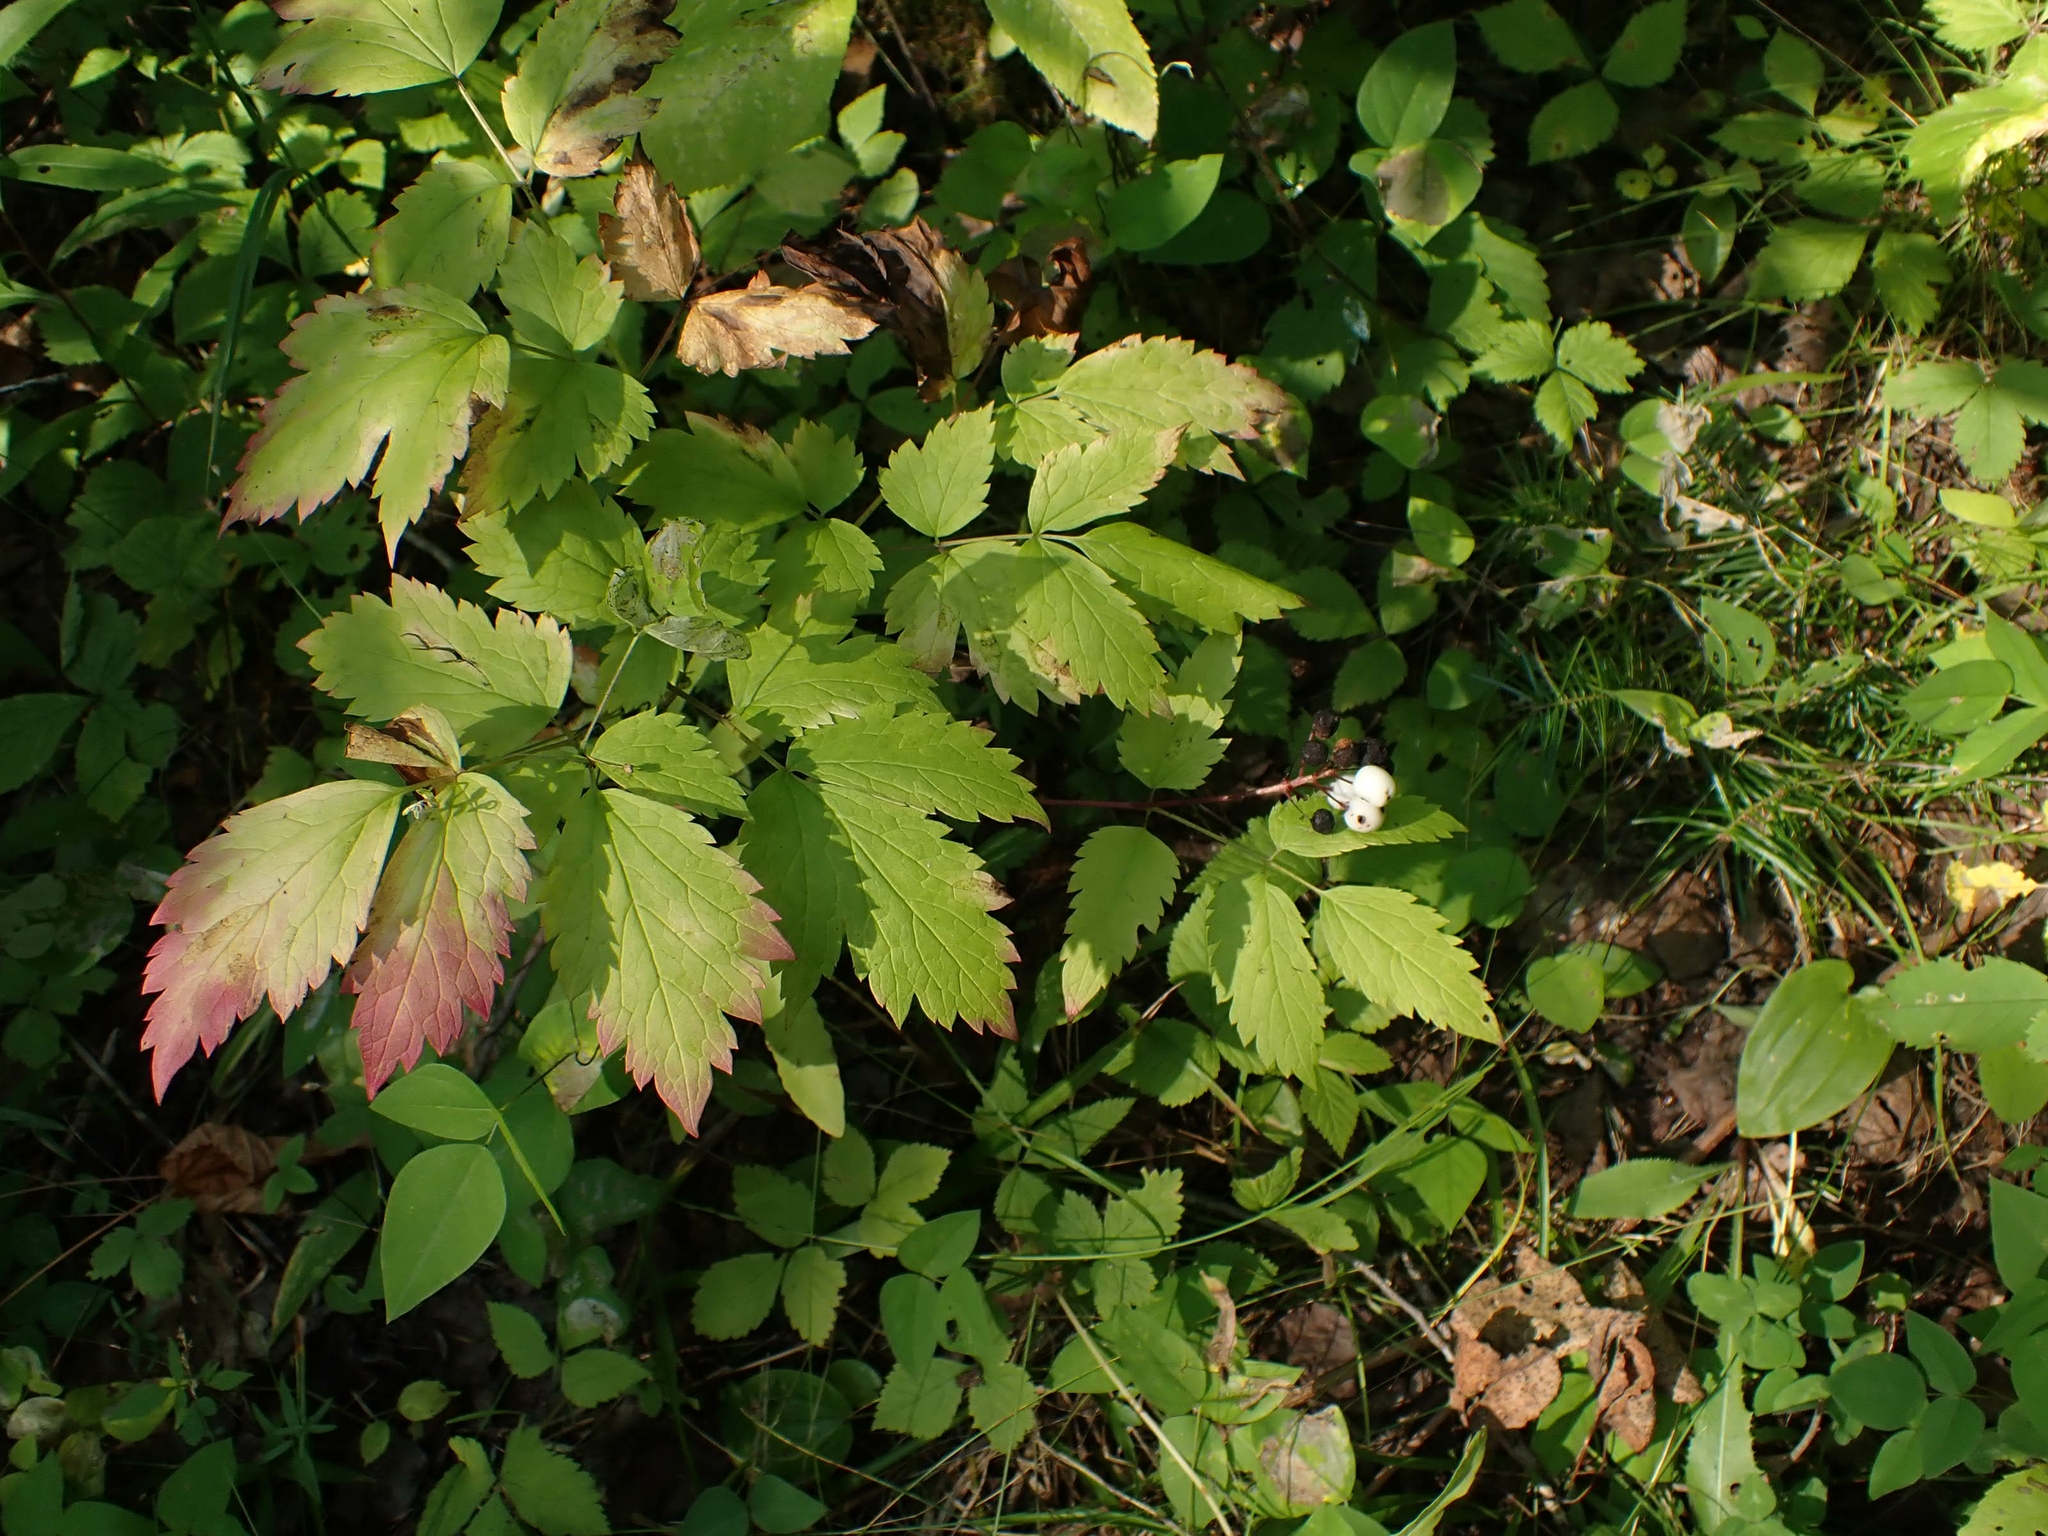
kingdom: Plantae
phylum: Tracheophyta
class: Magnoliopsida
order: Ranunculales
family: Ranunculaceae
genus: Actaea
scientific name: Actaea rubra
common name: Red baneberry
